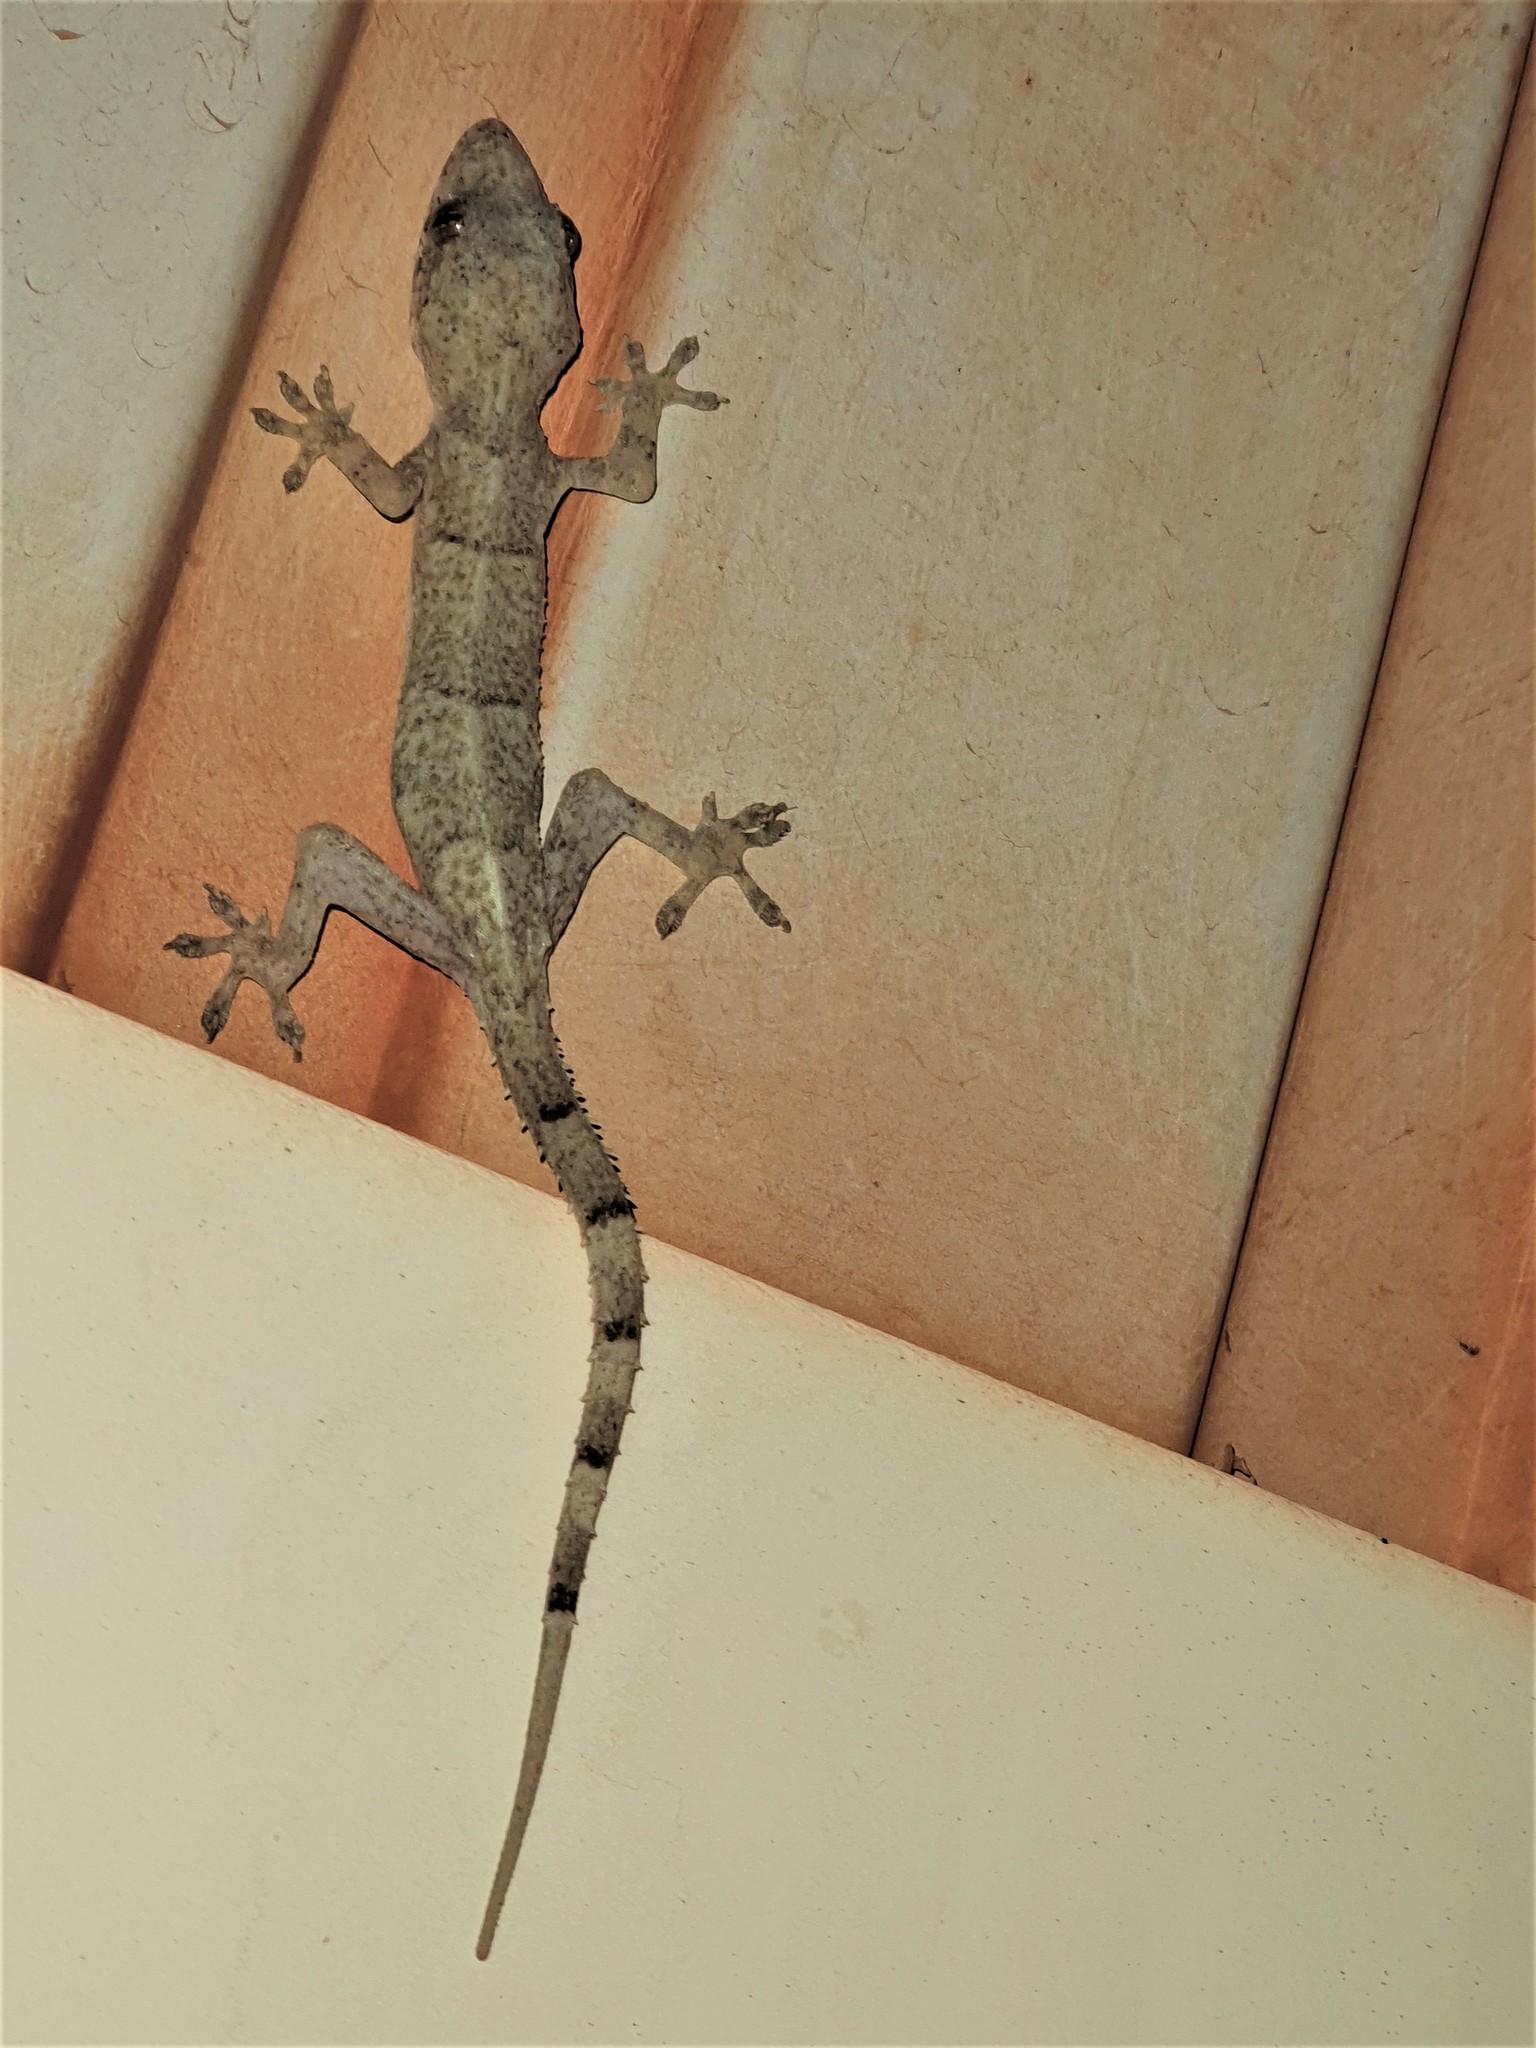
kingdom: Animalia
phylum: Chordata
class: Squamata
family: Gekkonidae
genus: Hemidactylus
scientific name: Hemidactylus mabouia
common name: House gecko
